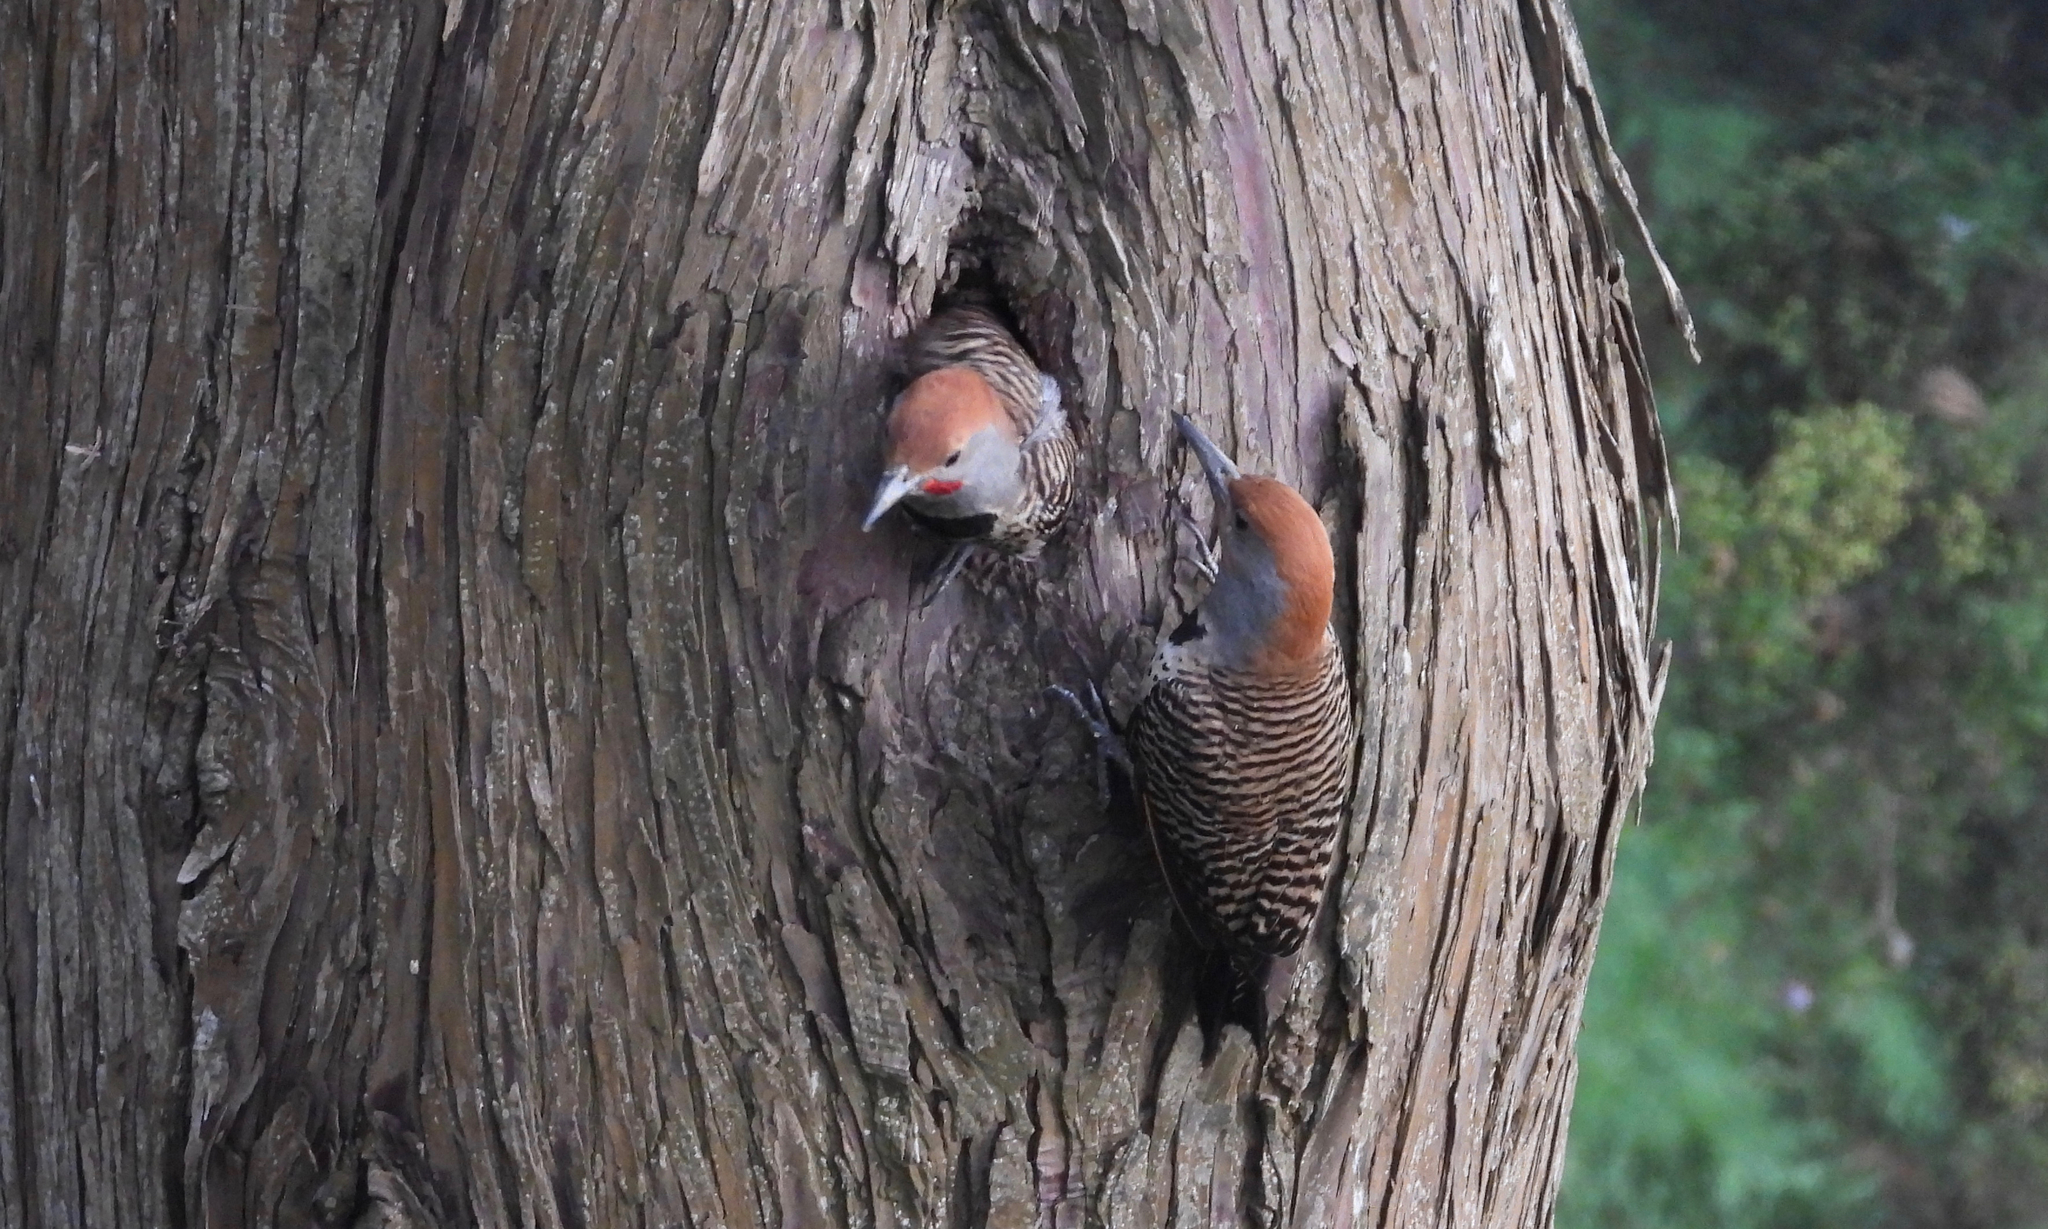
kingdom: Animalia
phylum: Chordata
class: Aves
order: Piciformes
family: Picidae
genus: Colaptes
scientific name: Colaptes auratus
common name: Northern flicker
